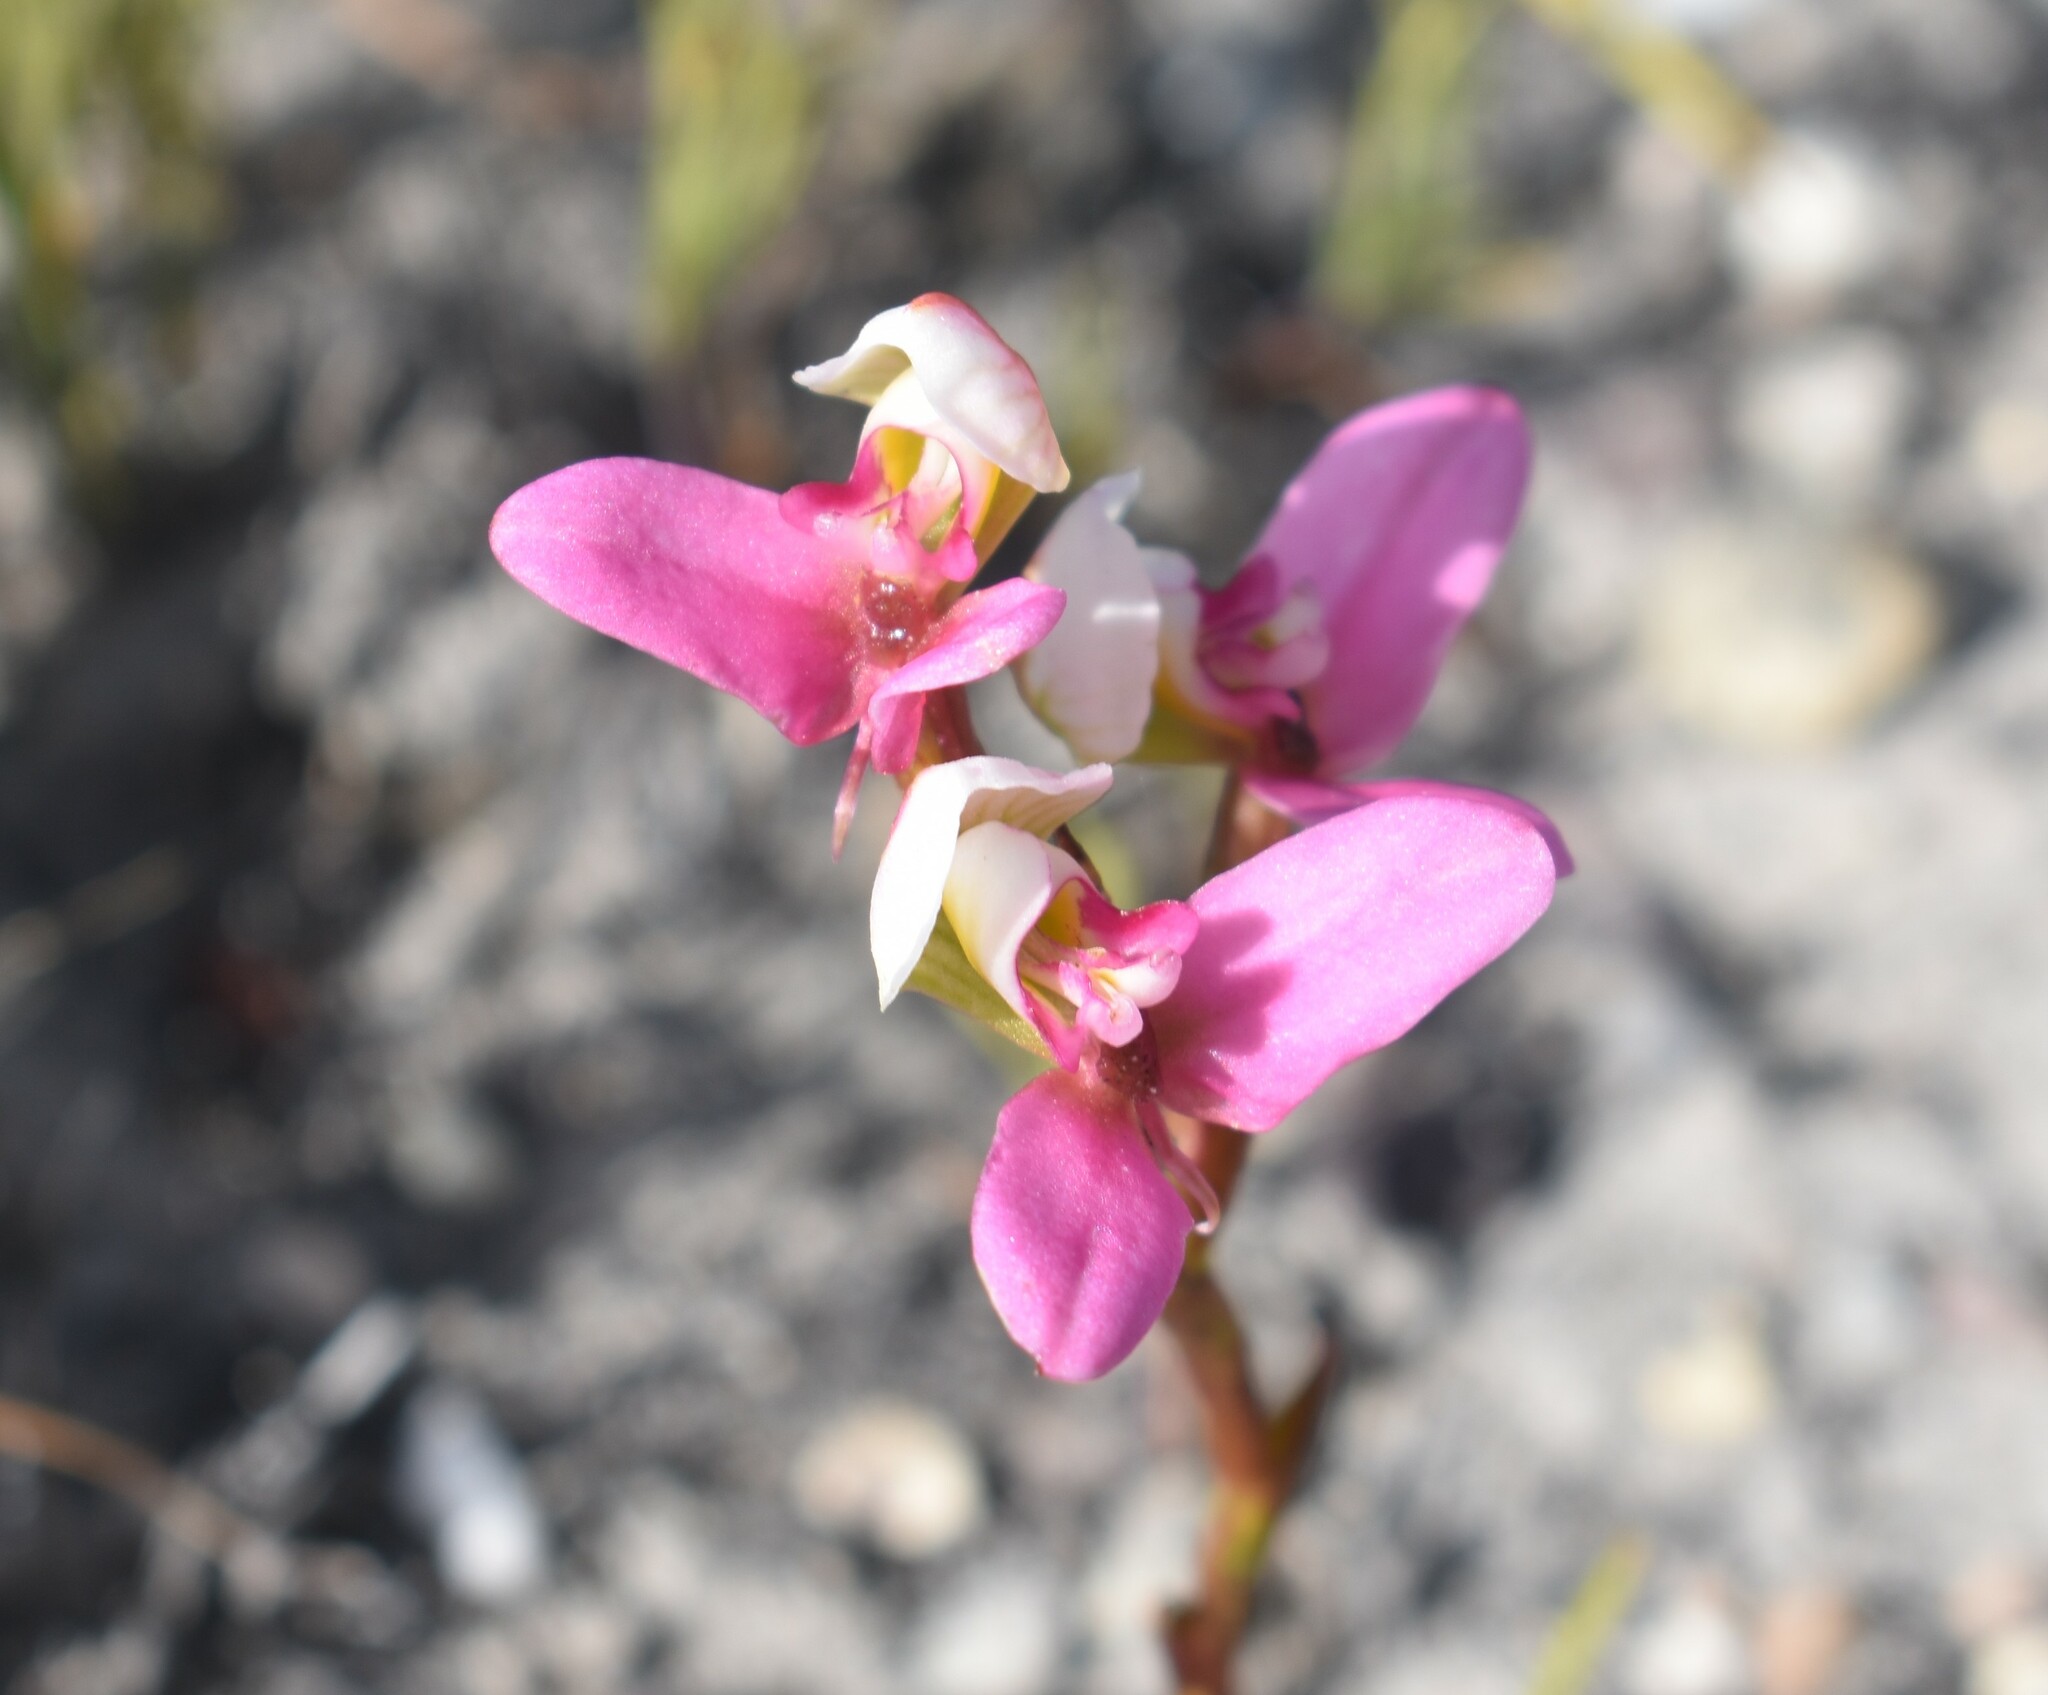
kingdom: Plantae
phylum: Tracheophyta
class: Liliopsida
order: Asparagales
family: Orchidaceae
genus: Disa
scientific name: Disa filicornis
